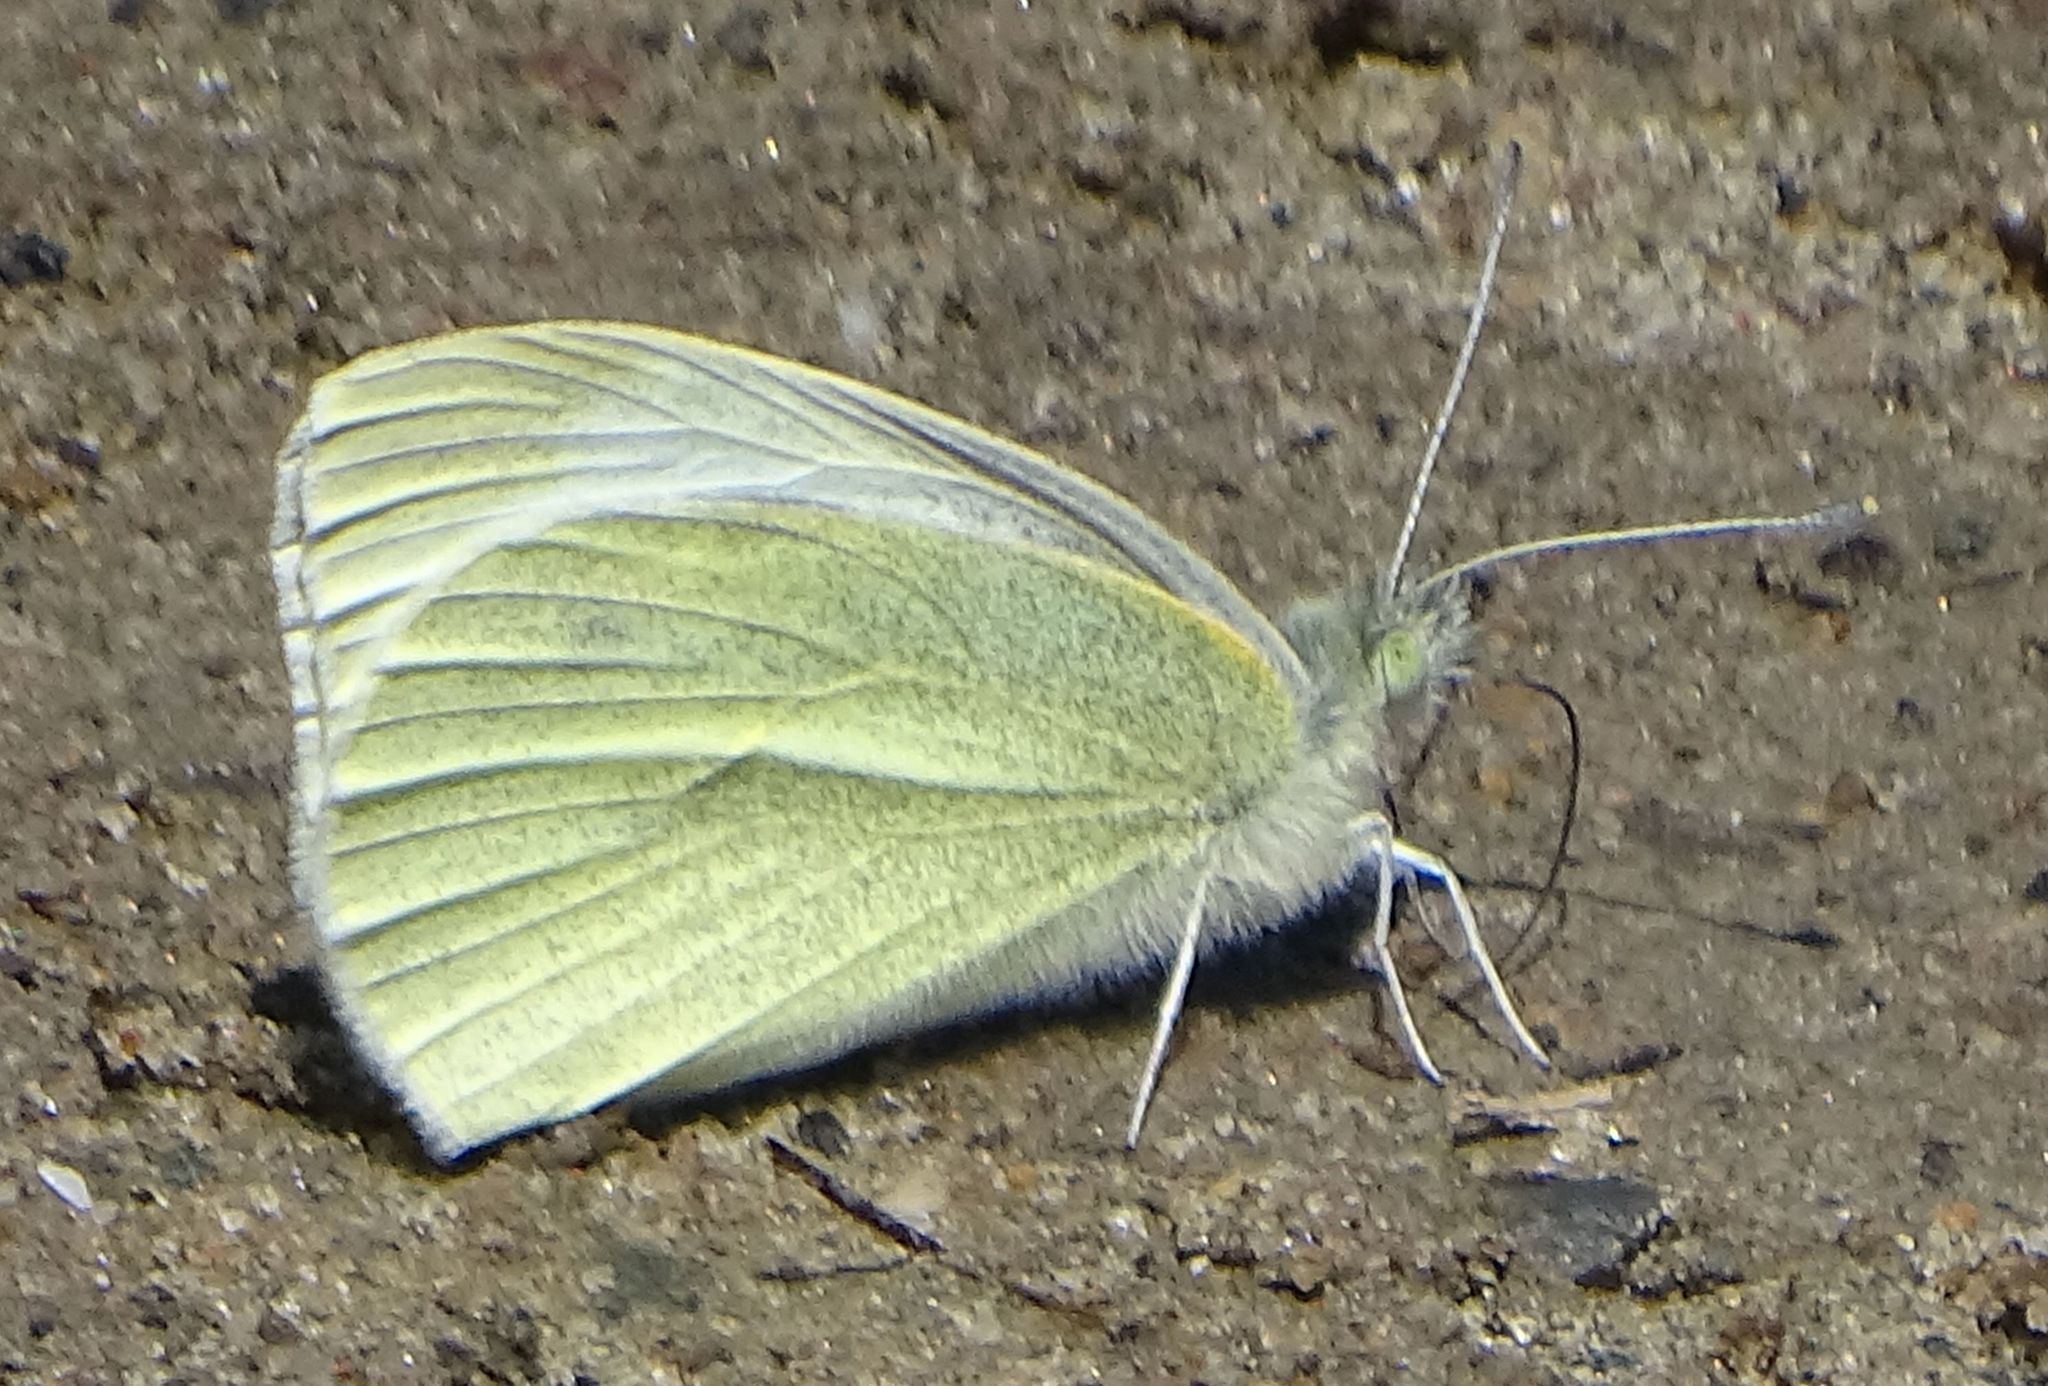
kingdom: Animalia
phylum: Arthropoda
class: Insecta
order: Lepidoptera
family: Pieridae
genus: Pieris
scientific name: Pieris rapae
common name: Small white
